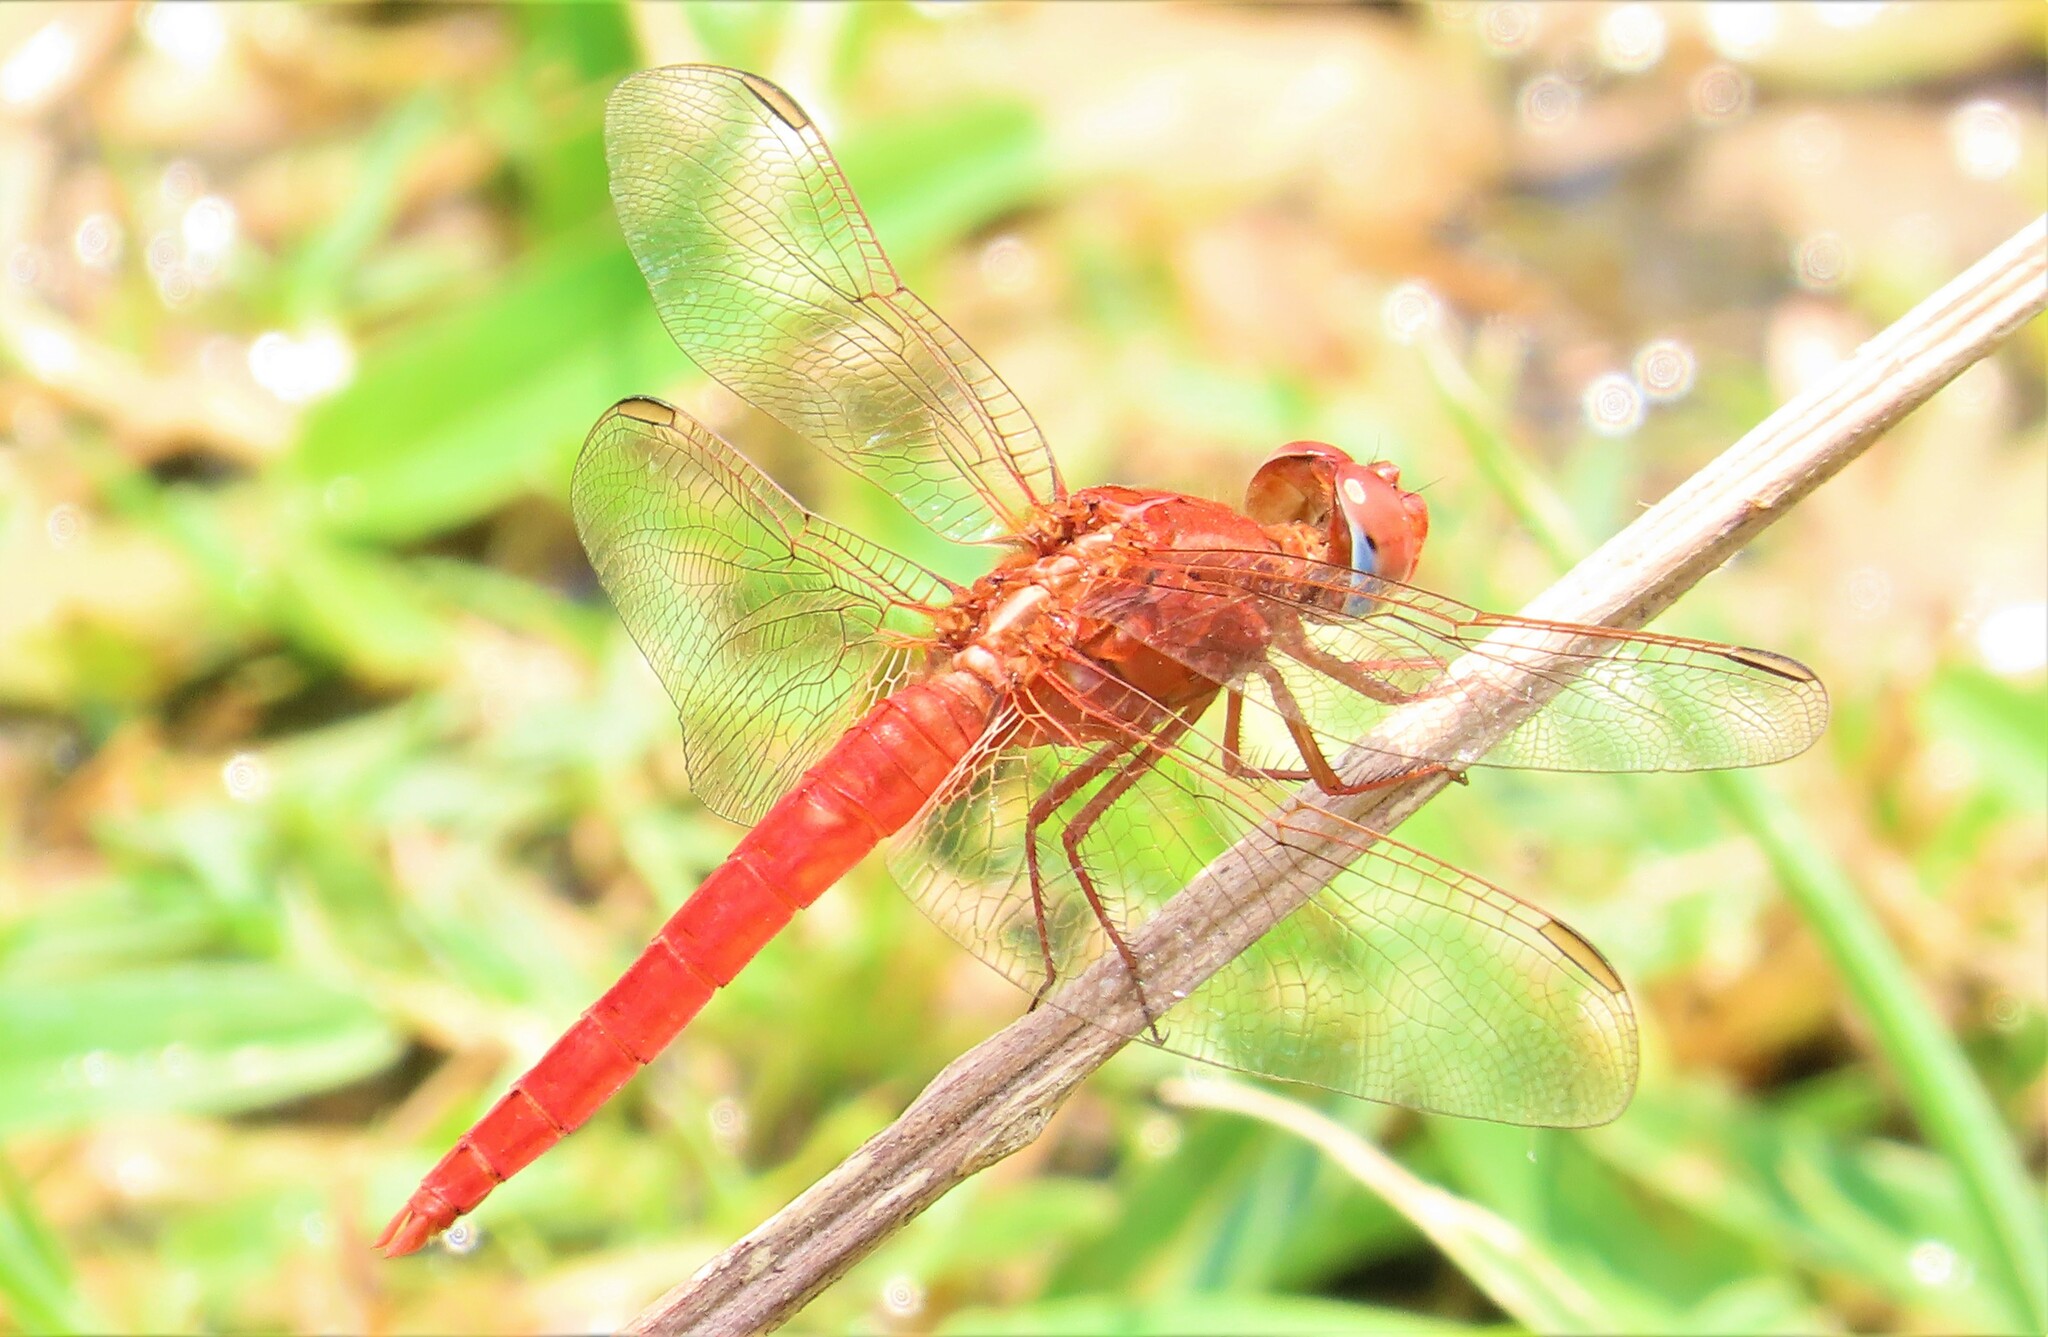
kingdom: Animalia
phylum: Arthropoda
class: Insecta
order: Odonata
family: Libellulidae
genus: Crocothemis
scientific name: Crocothemis erythraea
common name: Scarlet dragonfly
